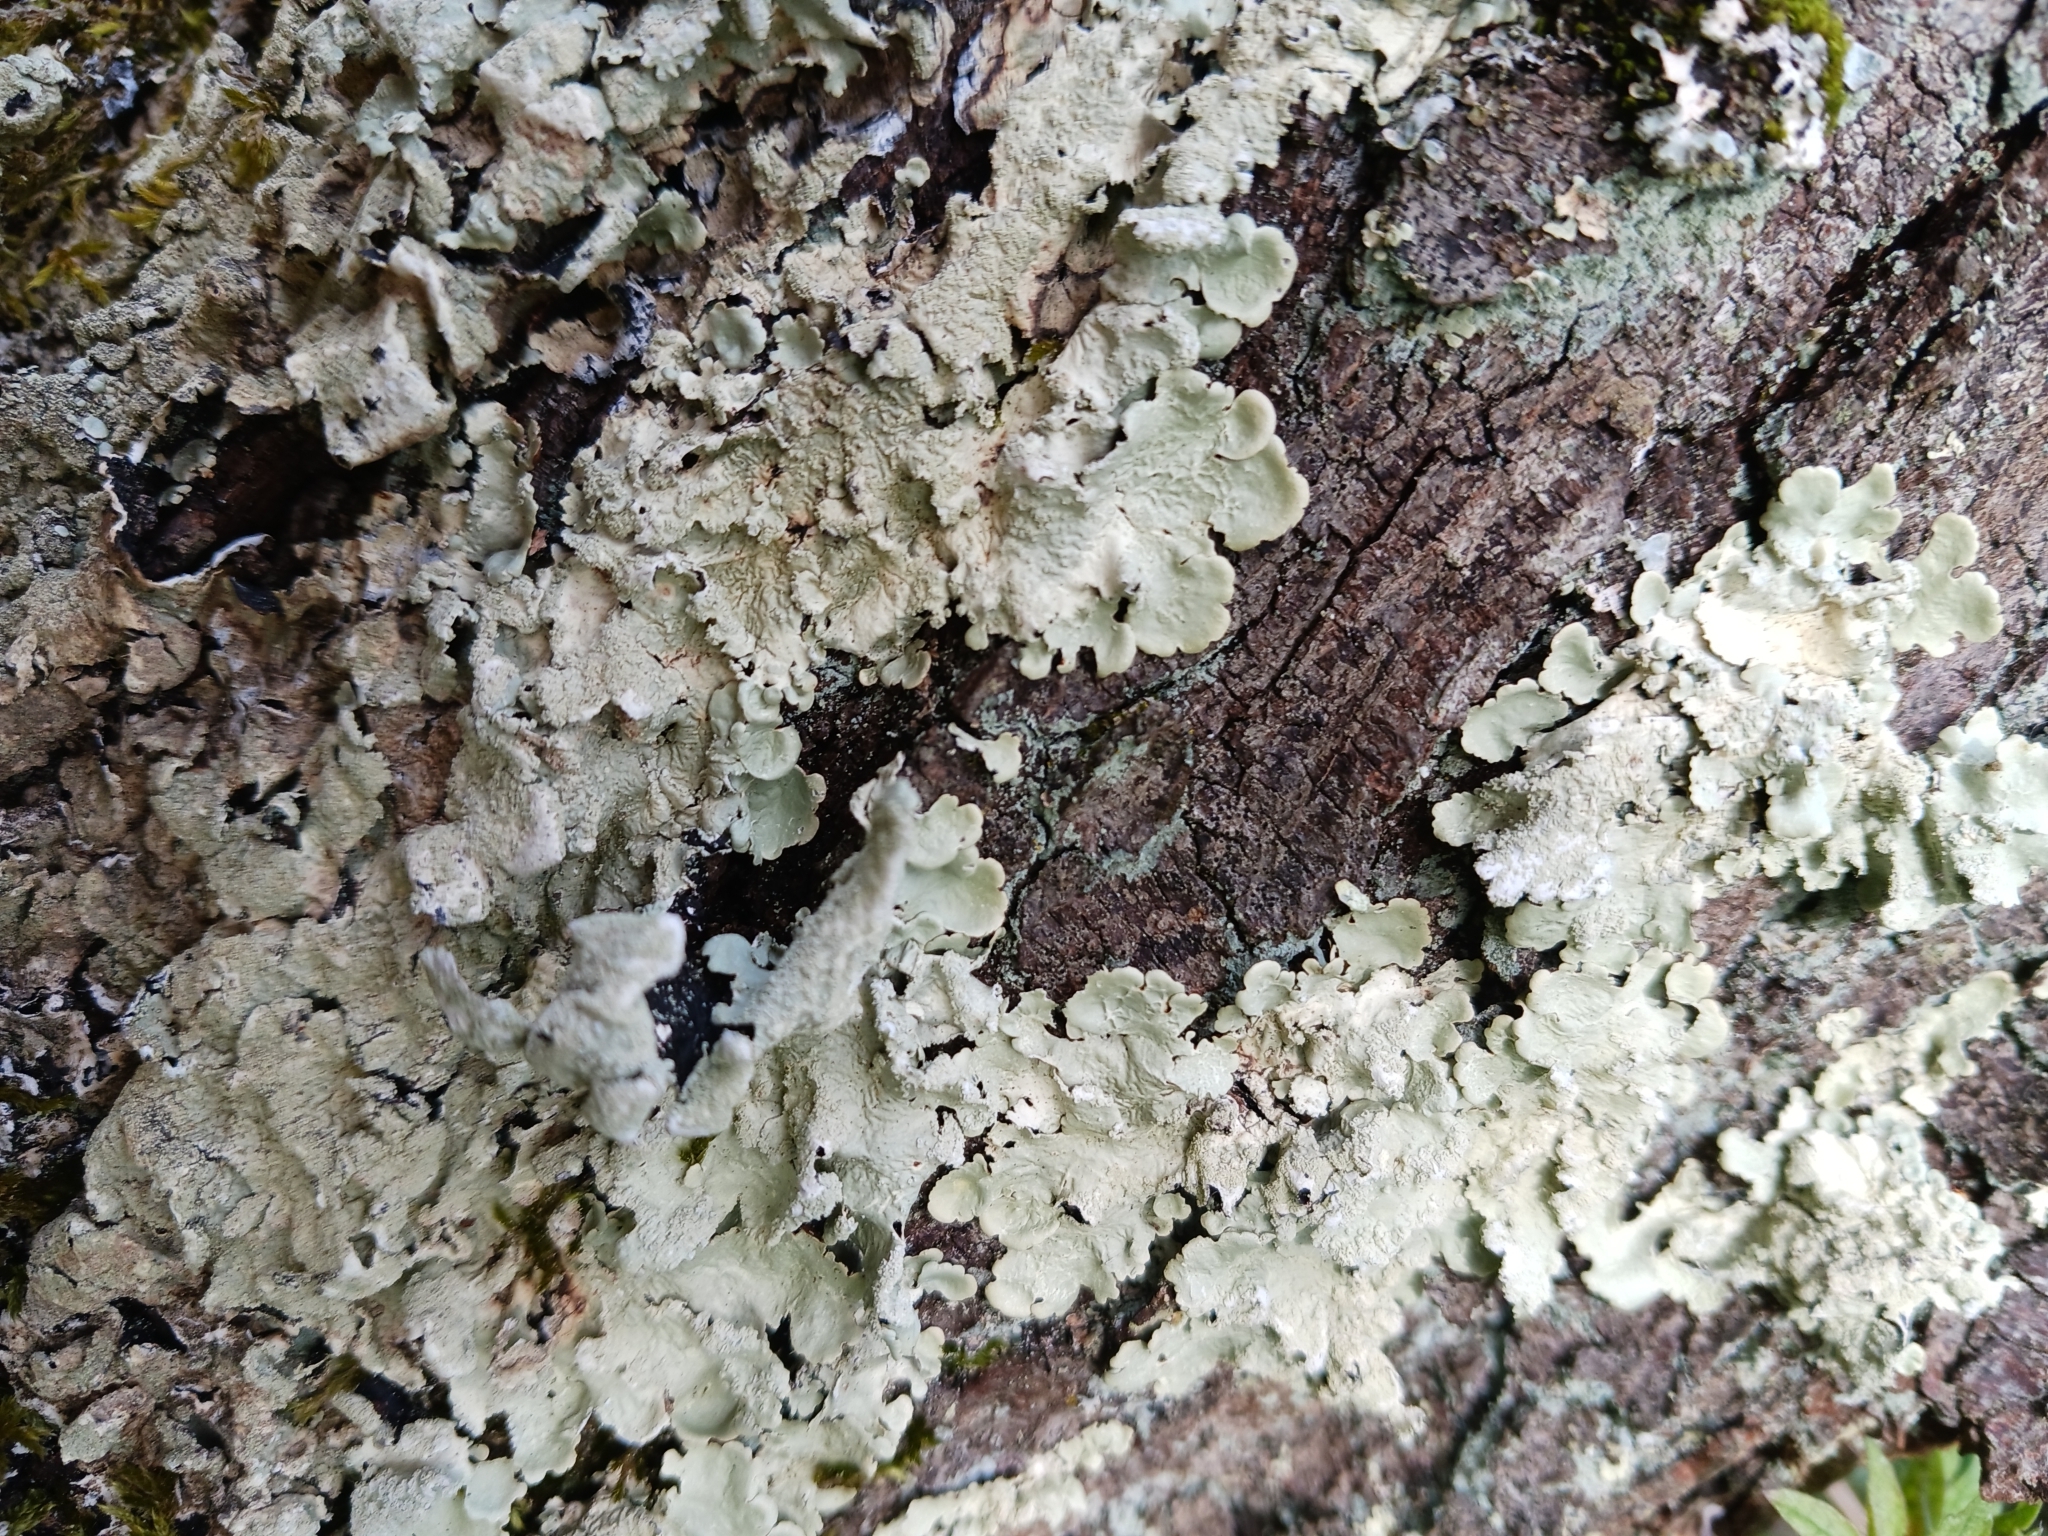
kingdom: Fungi
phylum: Ascomycota
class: Lecanoromycetes
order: Lecanorales
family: Parmeliaceae
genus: Flavoparmelia
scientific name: Flavoparmelia caperata
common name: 40-mile per hour lichen
